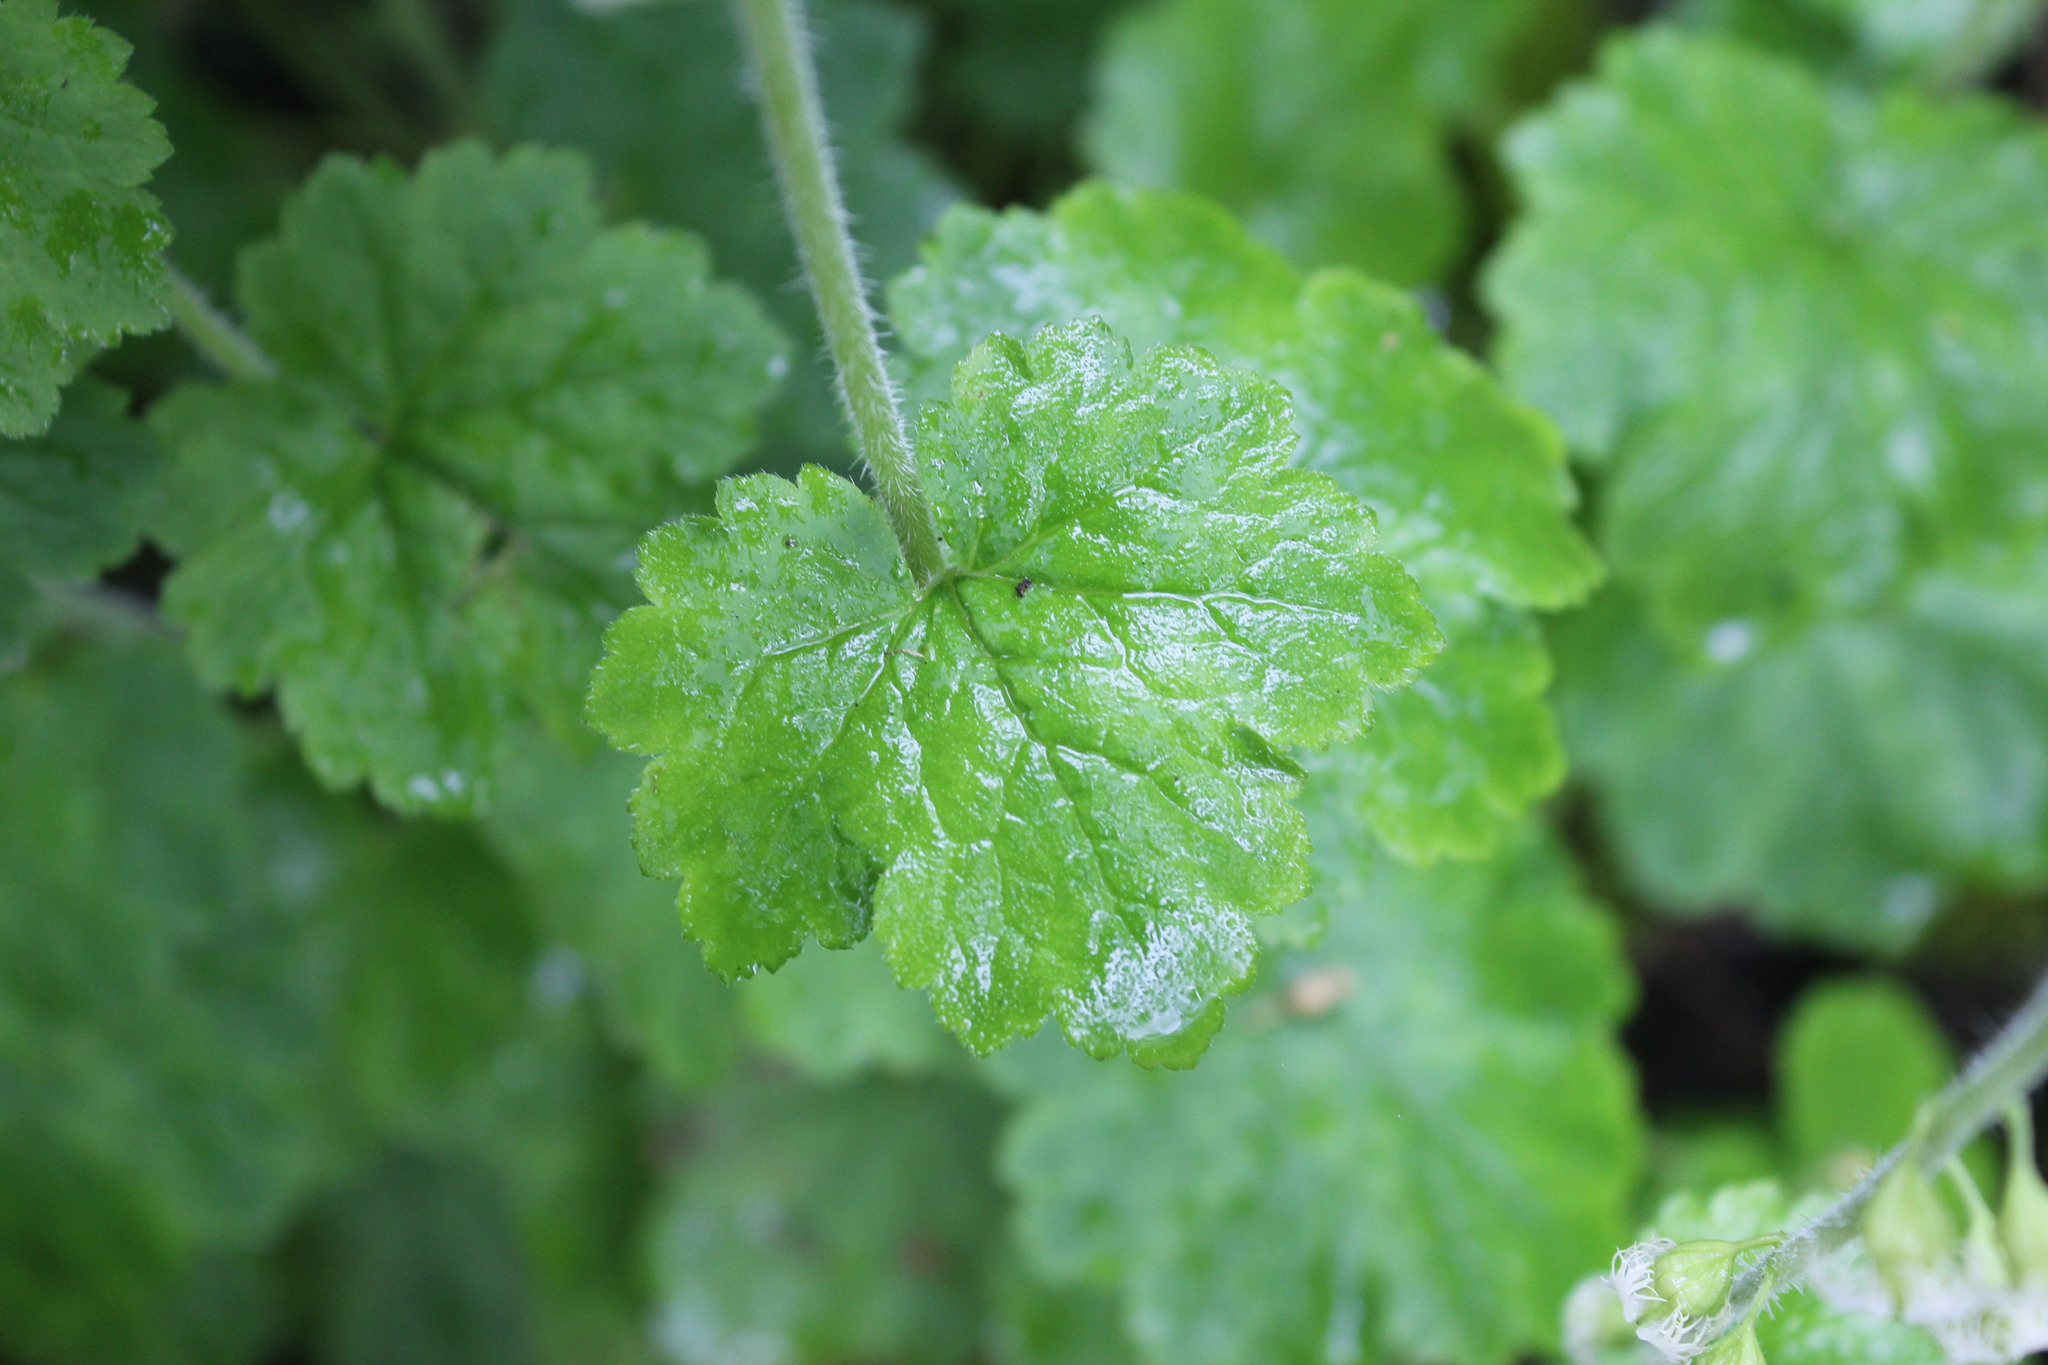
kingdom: Plantae
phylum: Tracheophyta
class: Magnoliopsida
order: Saxifragales
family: Saxifragaceae
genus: Tellima
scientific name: Tellima grandiflora
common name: Fringecups
